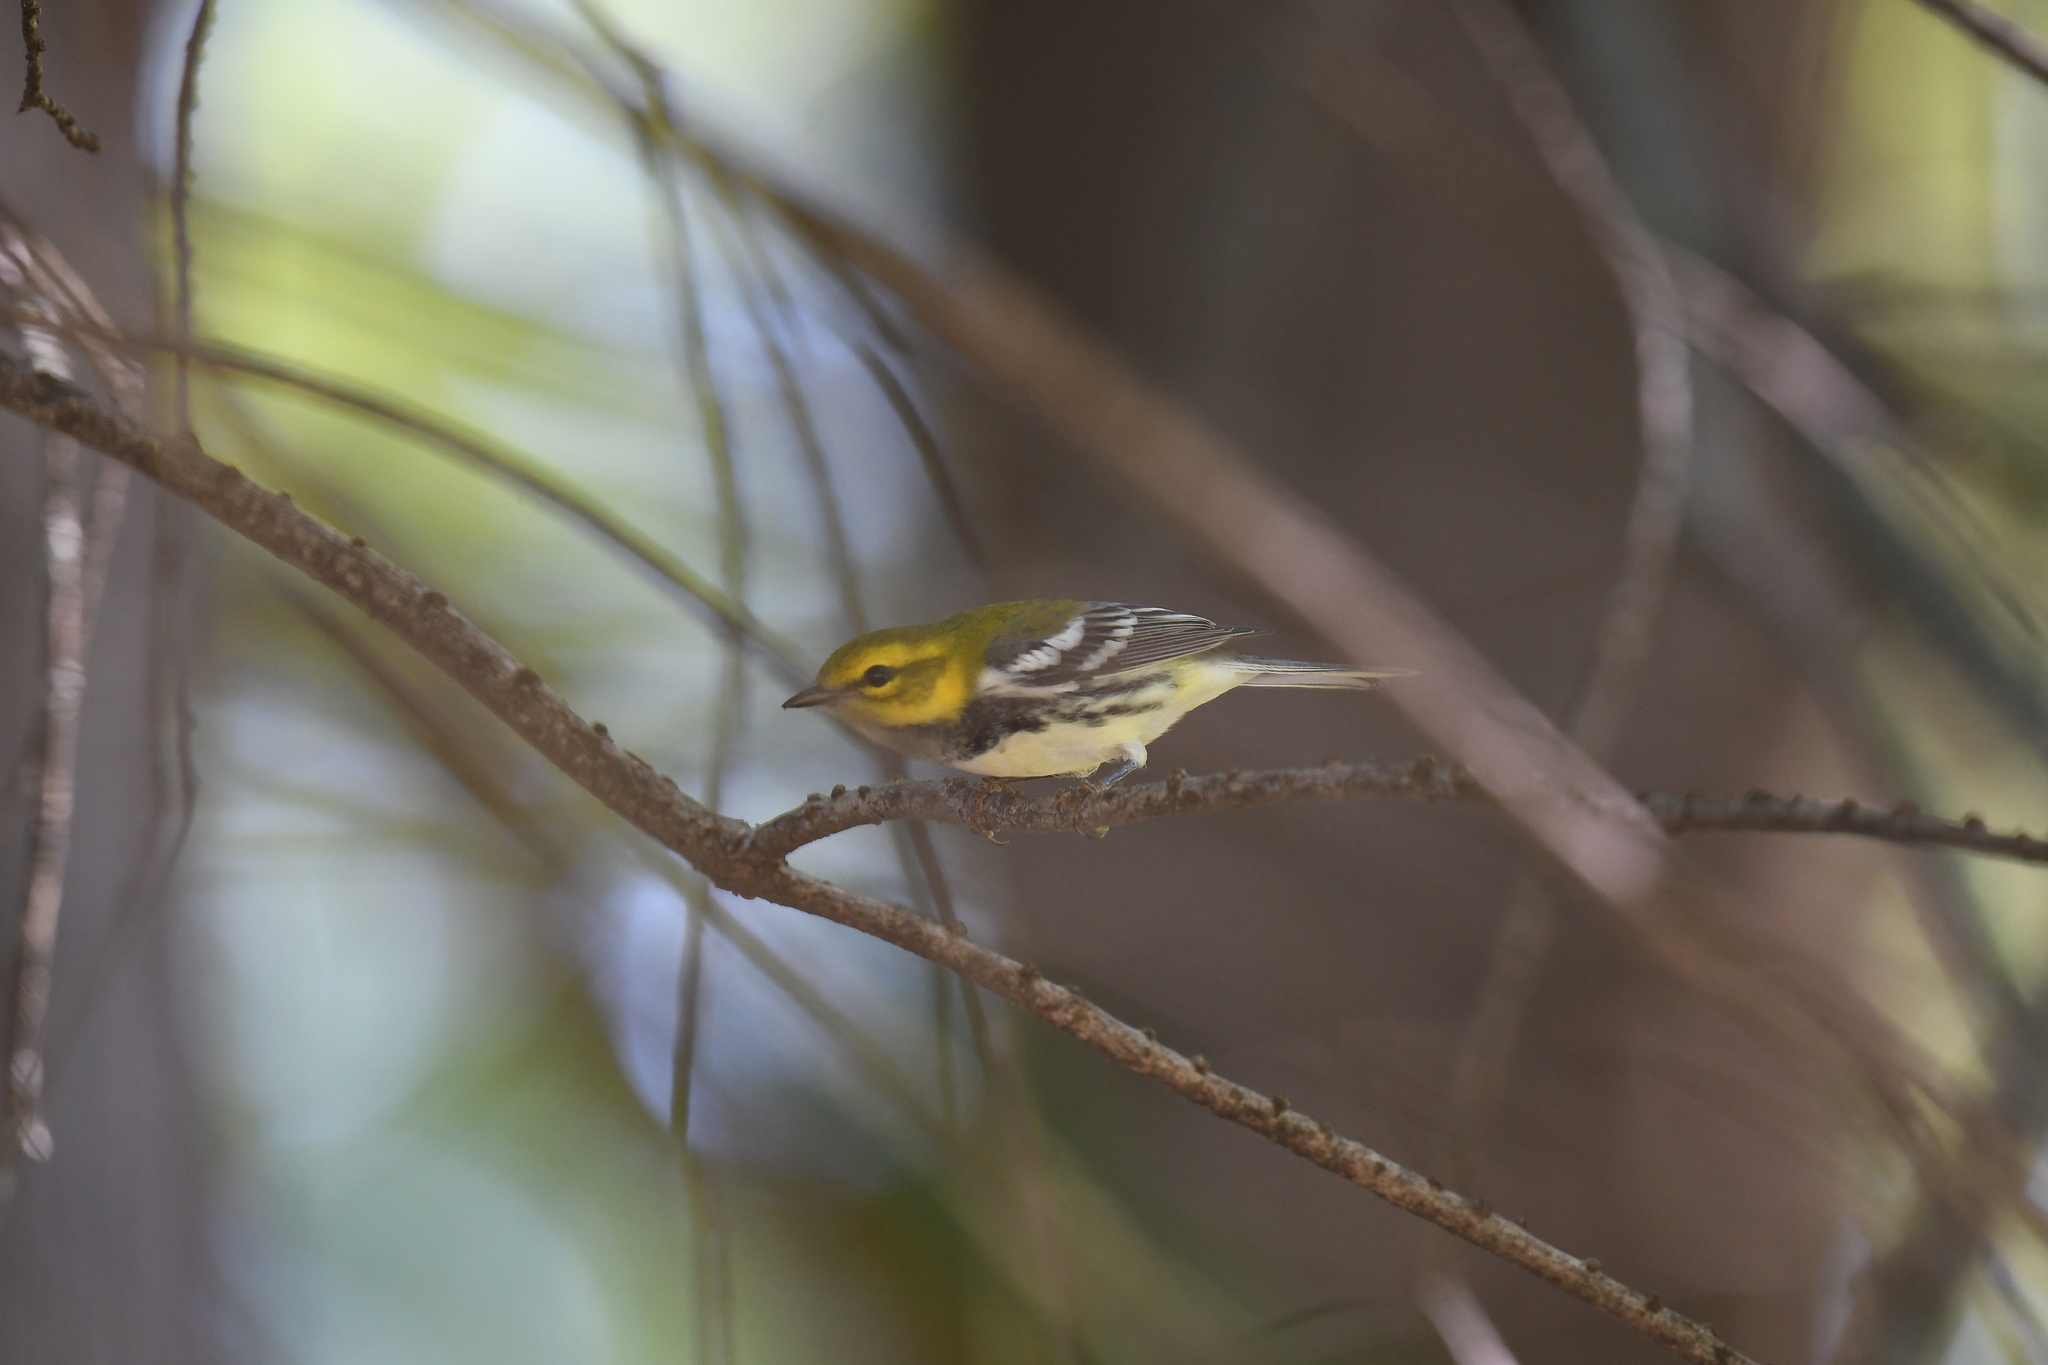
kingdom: Animalia
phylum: Chordata
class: Aves
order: Passeriformes
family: Parulidae
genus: Setophaga
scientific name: Setophaga virens
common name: Black-throated green warbler
